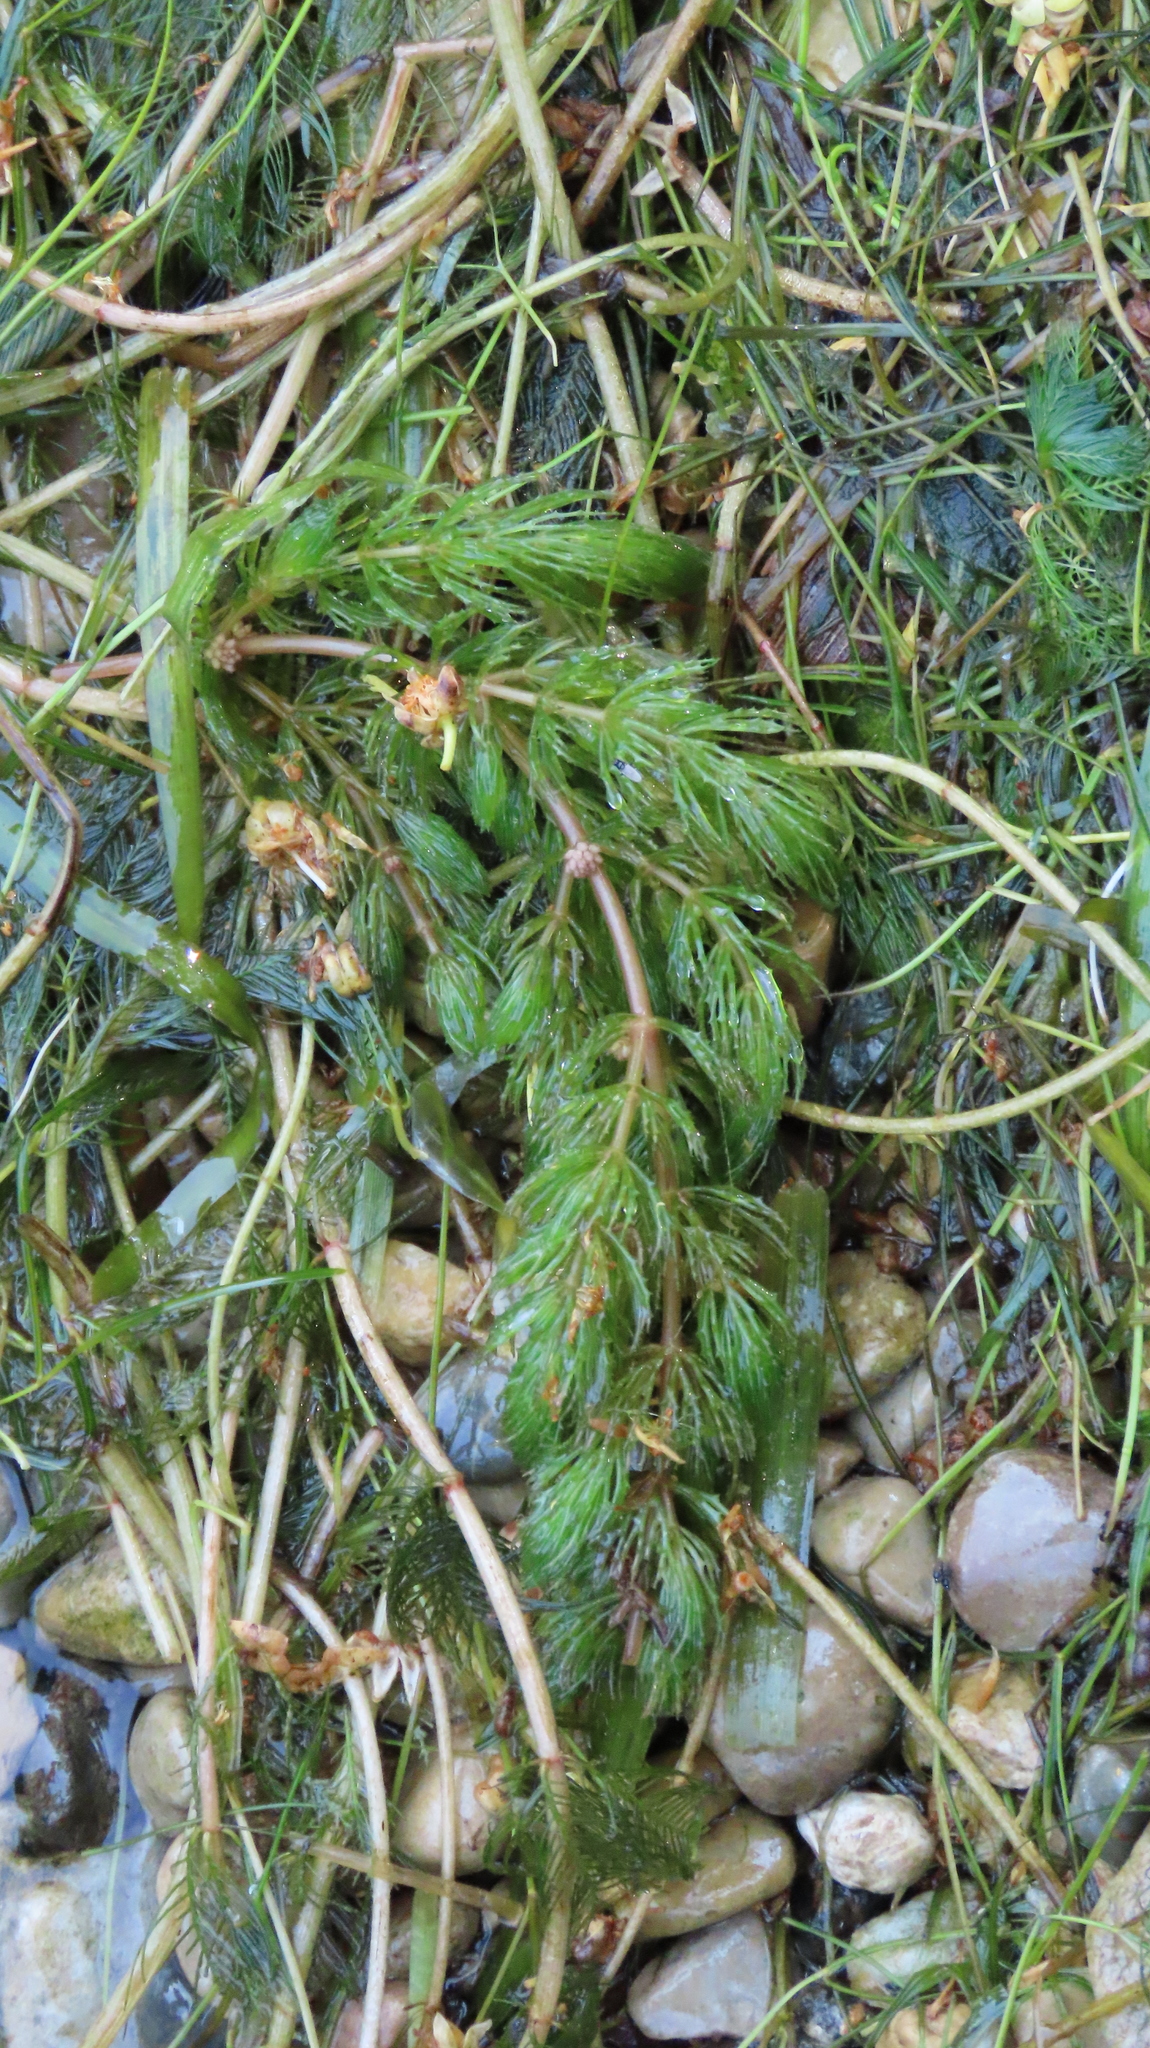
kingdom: Plantae
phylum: Tracheophyta
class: Magnoliopsida
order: Ceratophyllales
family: Ceratophyllaceae
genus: Ceratophyllum
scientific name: Ceratophyllum demersum
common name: Rigid hornwort
